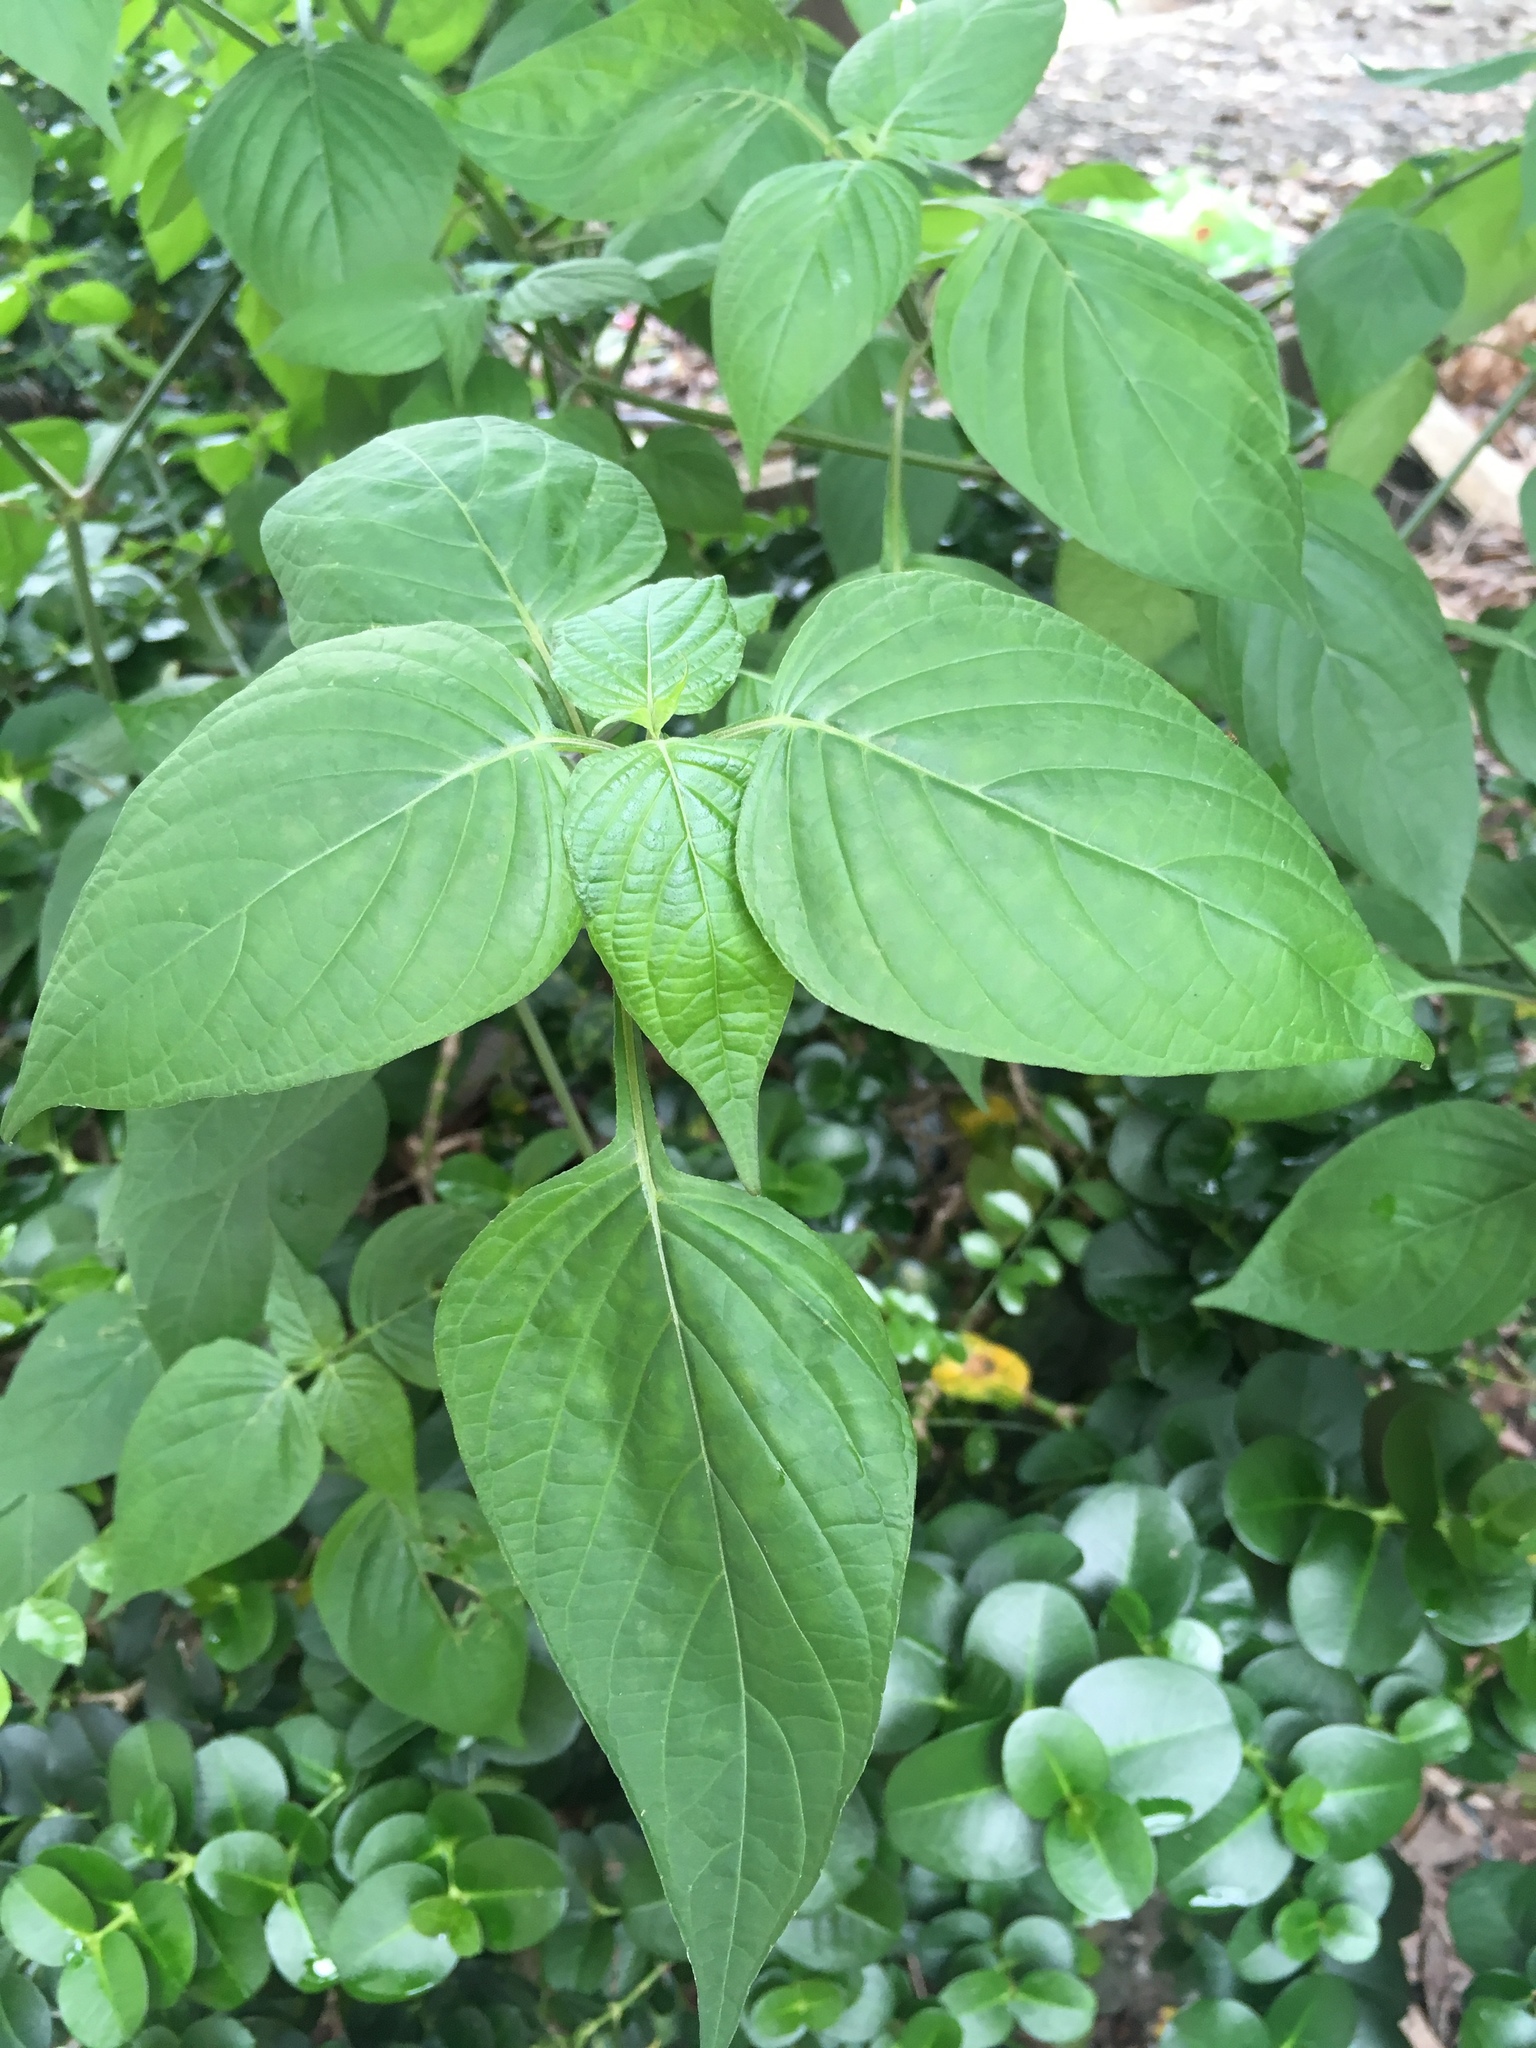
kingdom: Plantae
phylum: Tracheophyta
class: Magnoliopsida
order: Caryophyllales
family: Nyctaginaceae
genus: Mirabilis
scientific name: Mirabilis jalapa
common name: Marvel-of-peru
